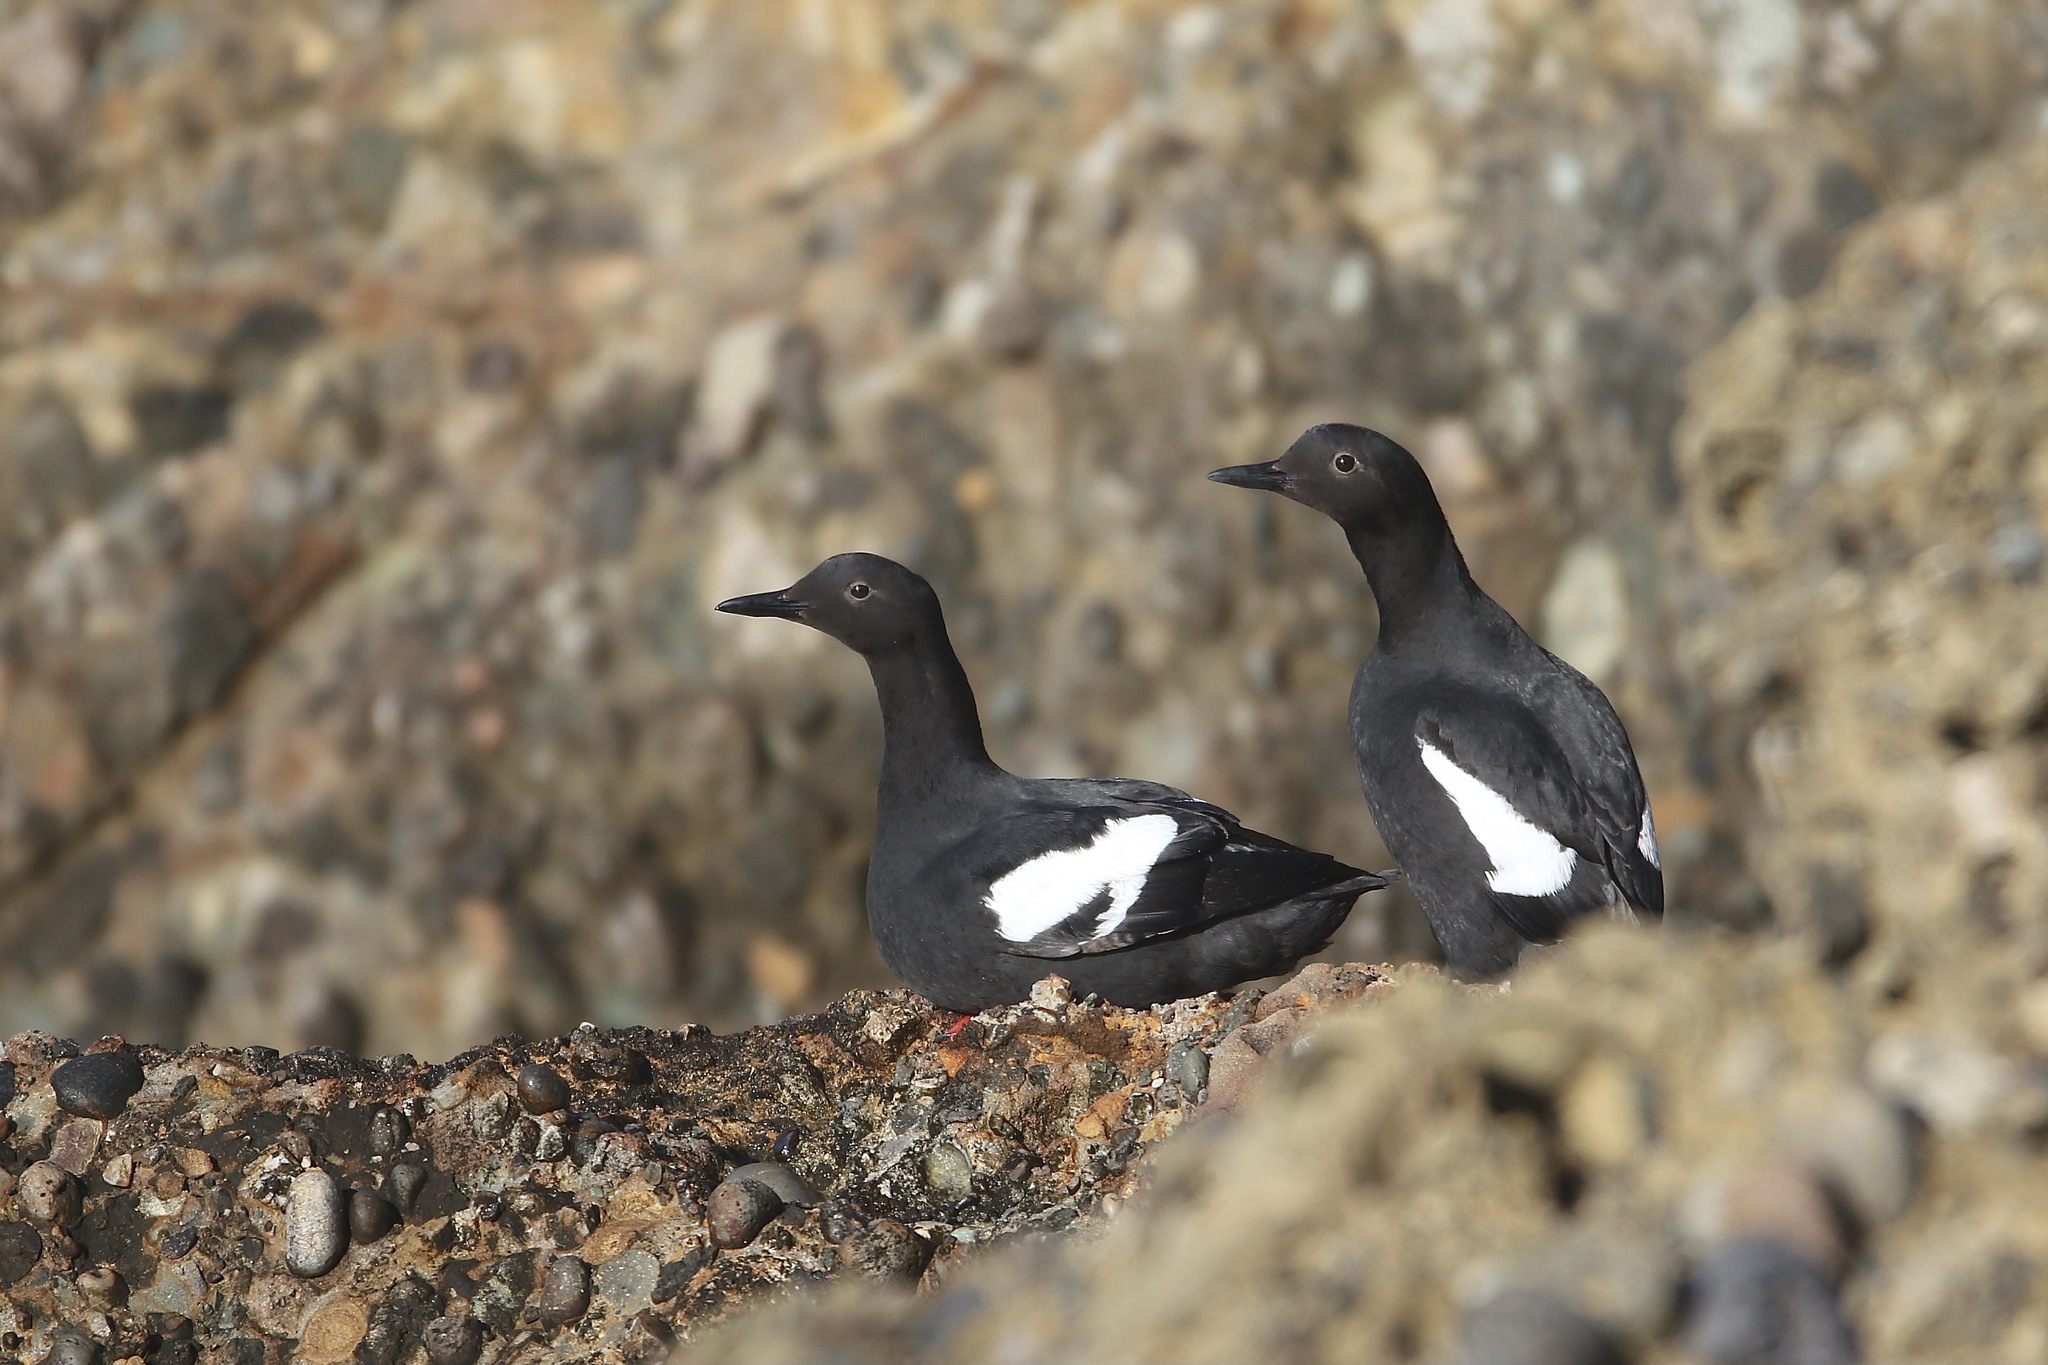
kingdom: Animalia
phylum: Chordata
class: Aves
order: Charadriiformes
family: Alcidae
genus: Cepphus
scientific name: Cepphus columba
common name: Pigeon guillemot
